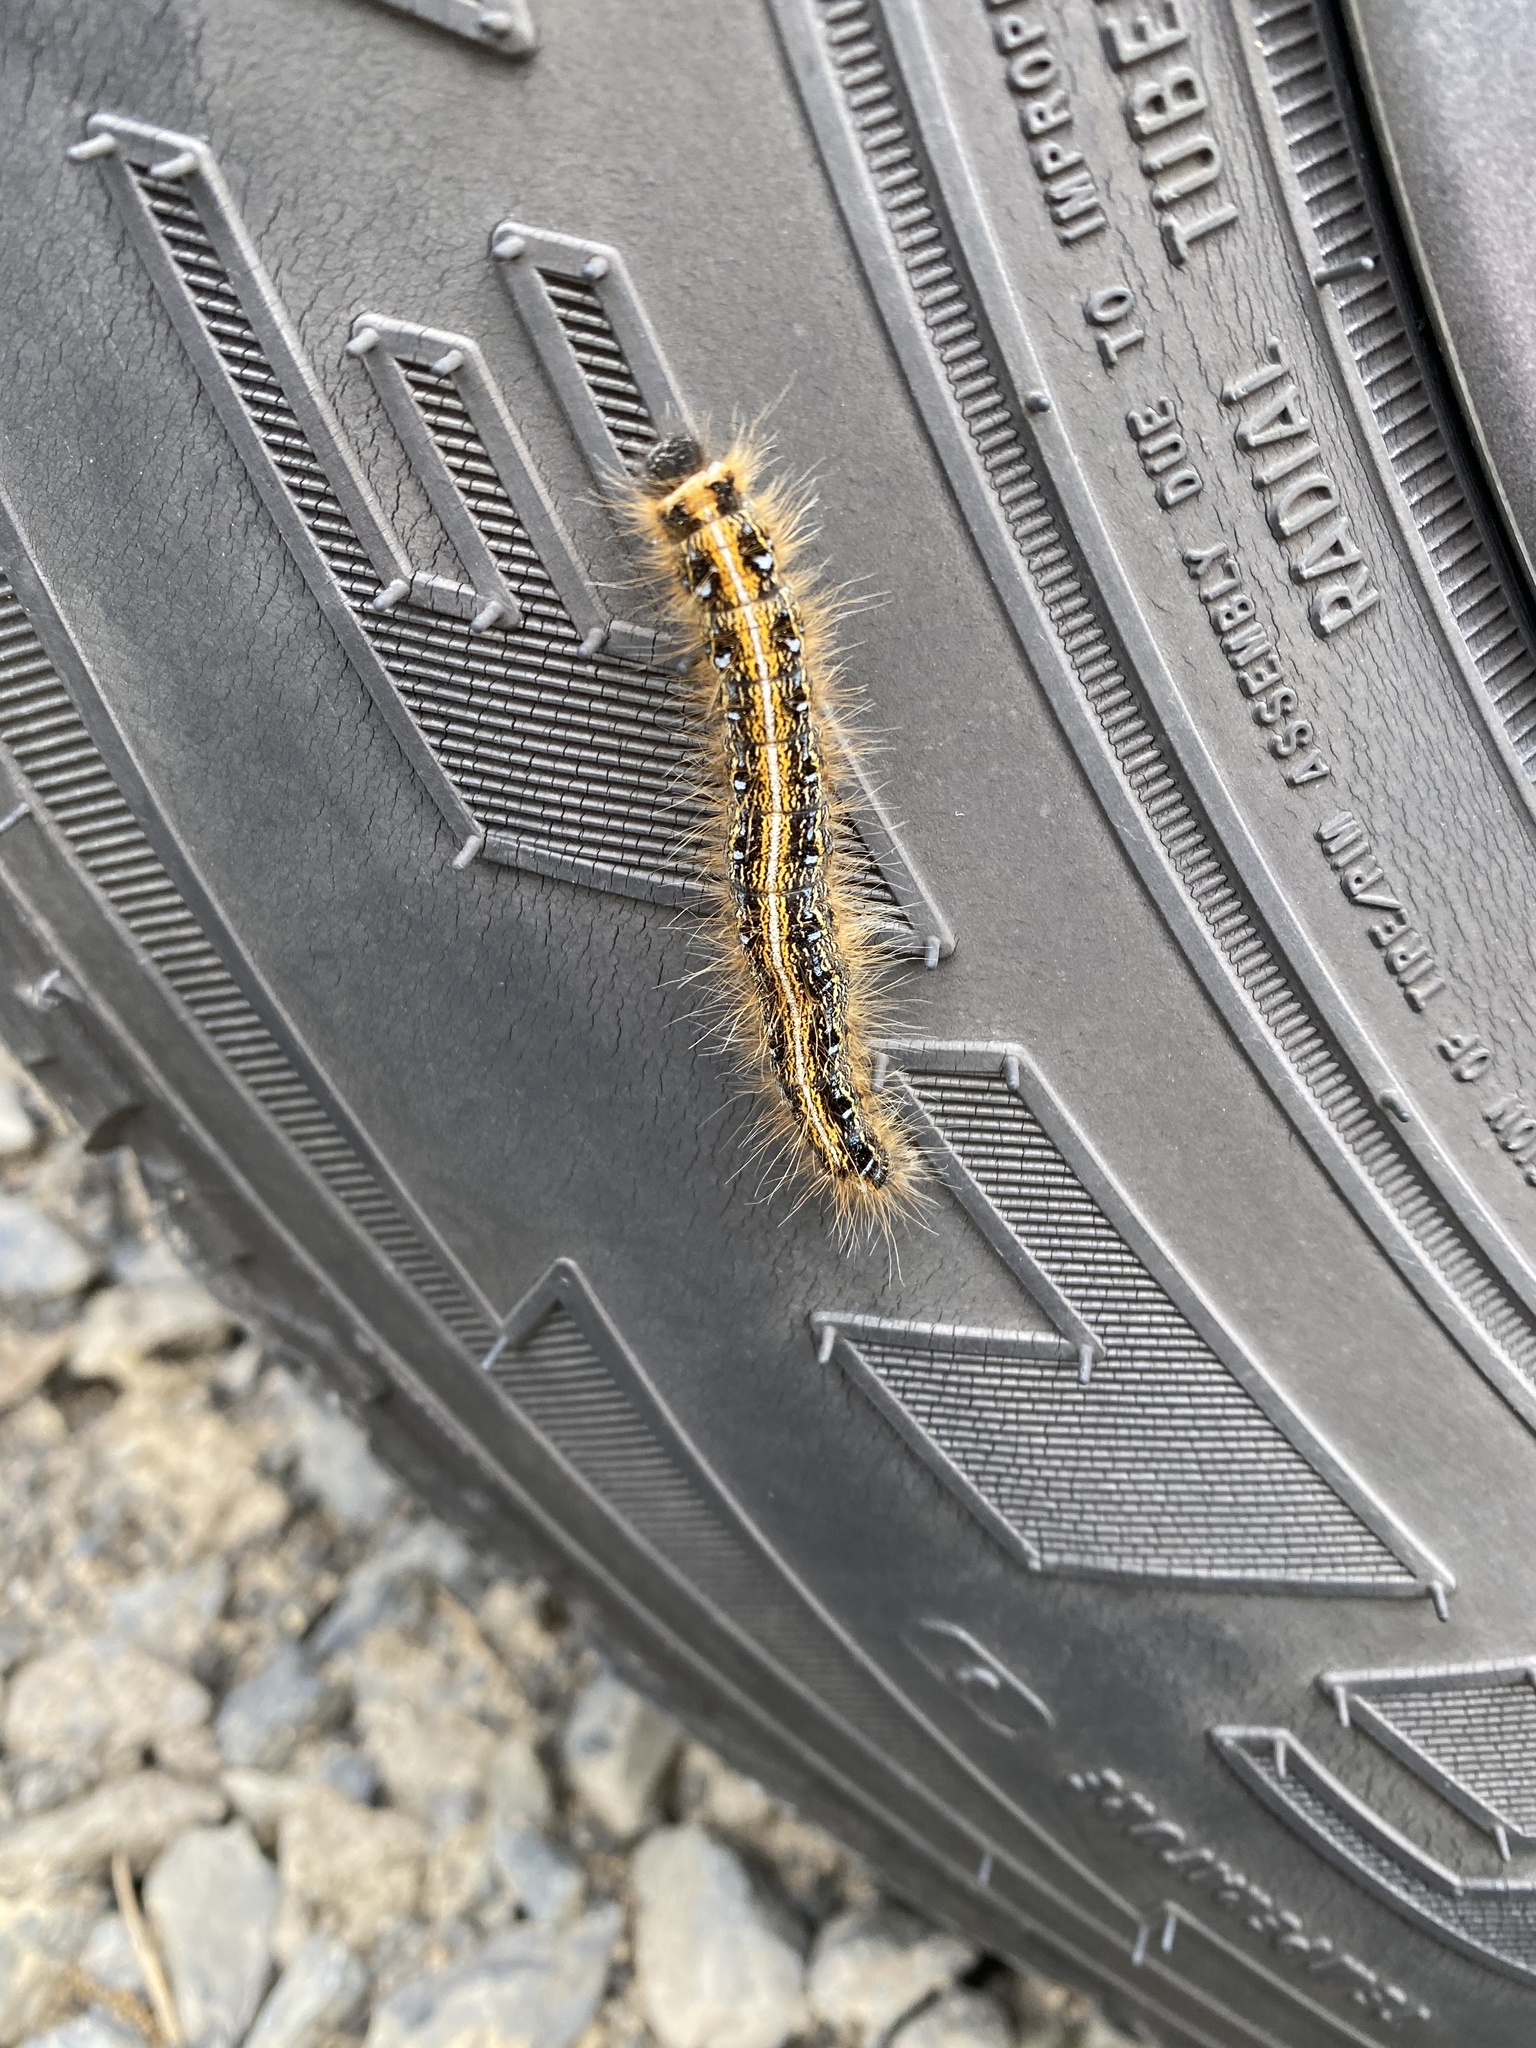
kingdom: Animalia
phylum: Arthropoda
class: Insecta
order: Lepidoptera
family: Lasiocampidae
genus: Malacosoma
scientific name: Malacosoma americana
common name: Eastern tent caterpillar moth
